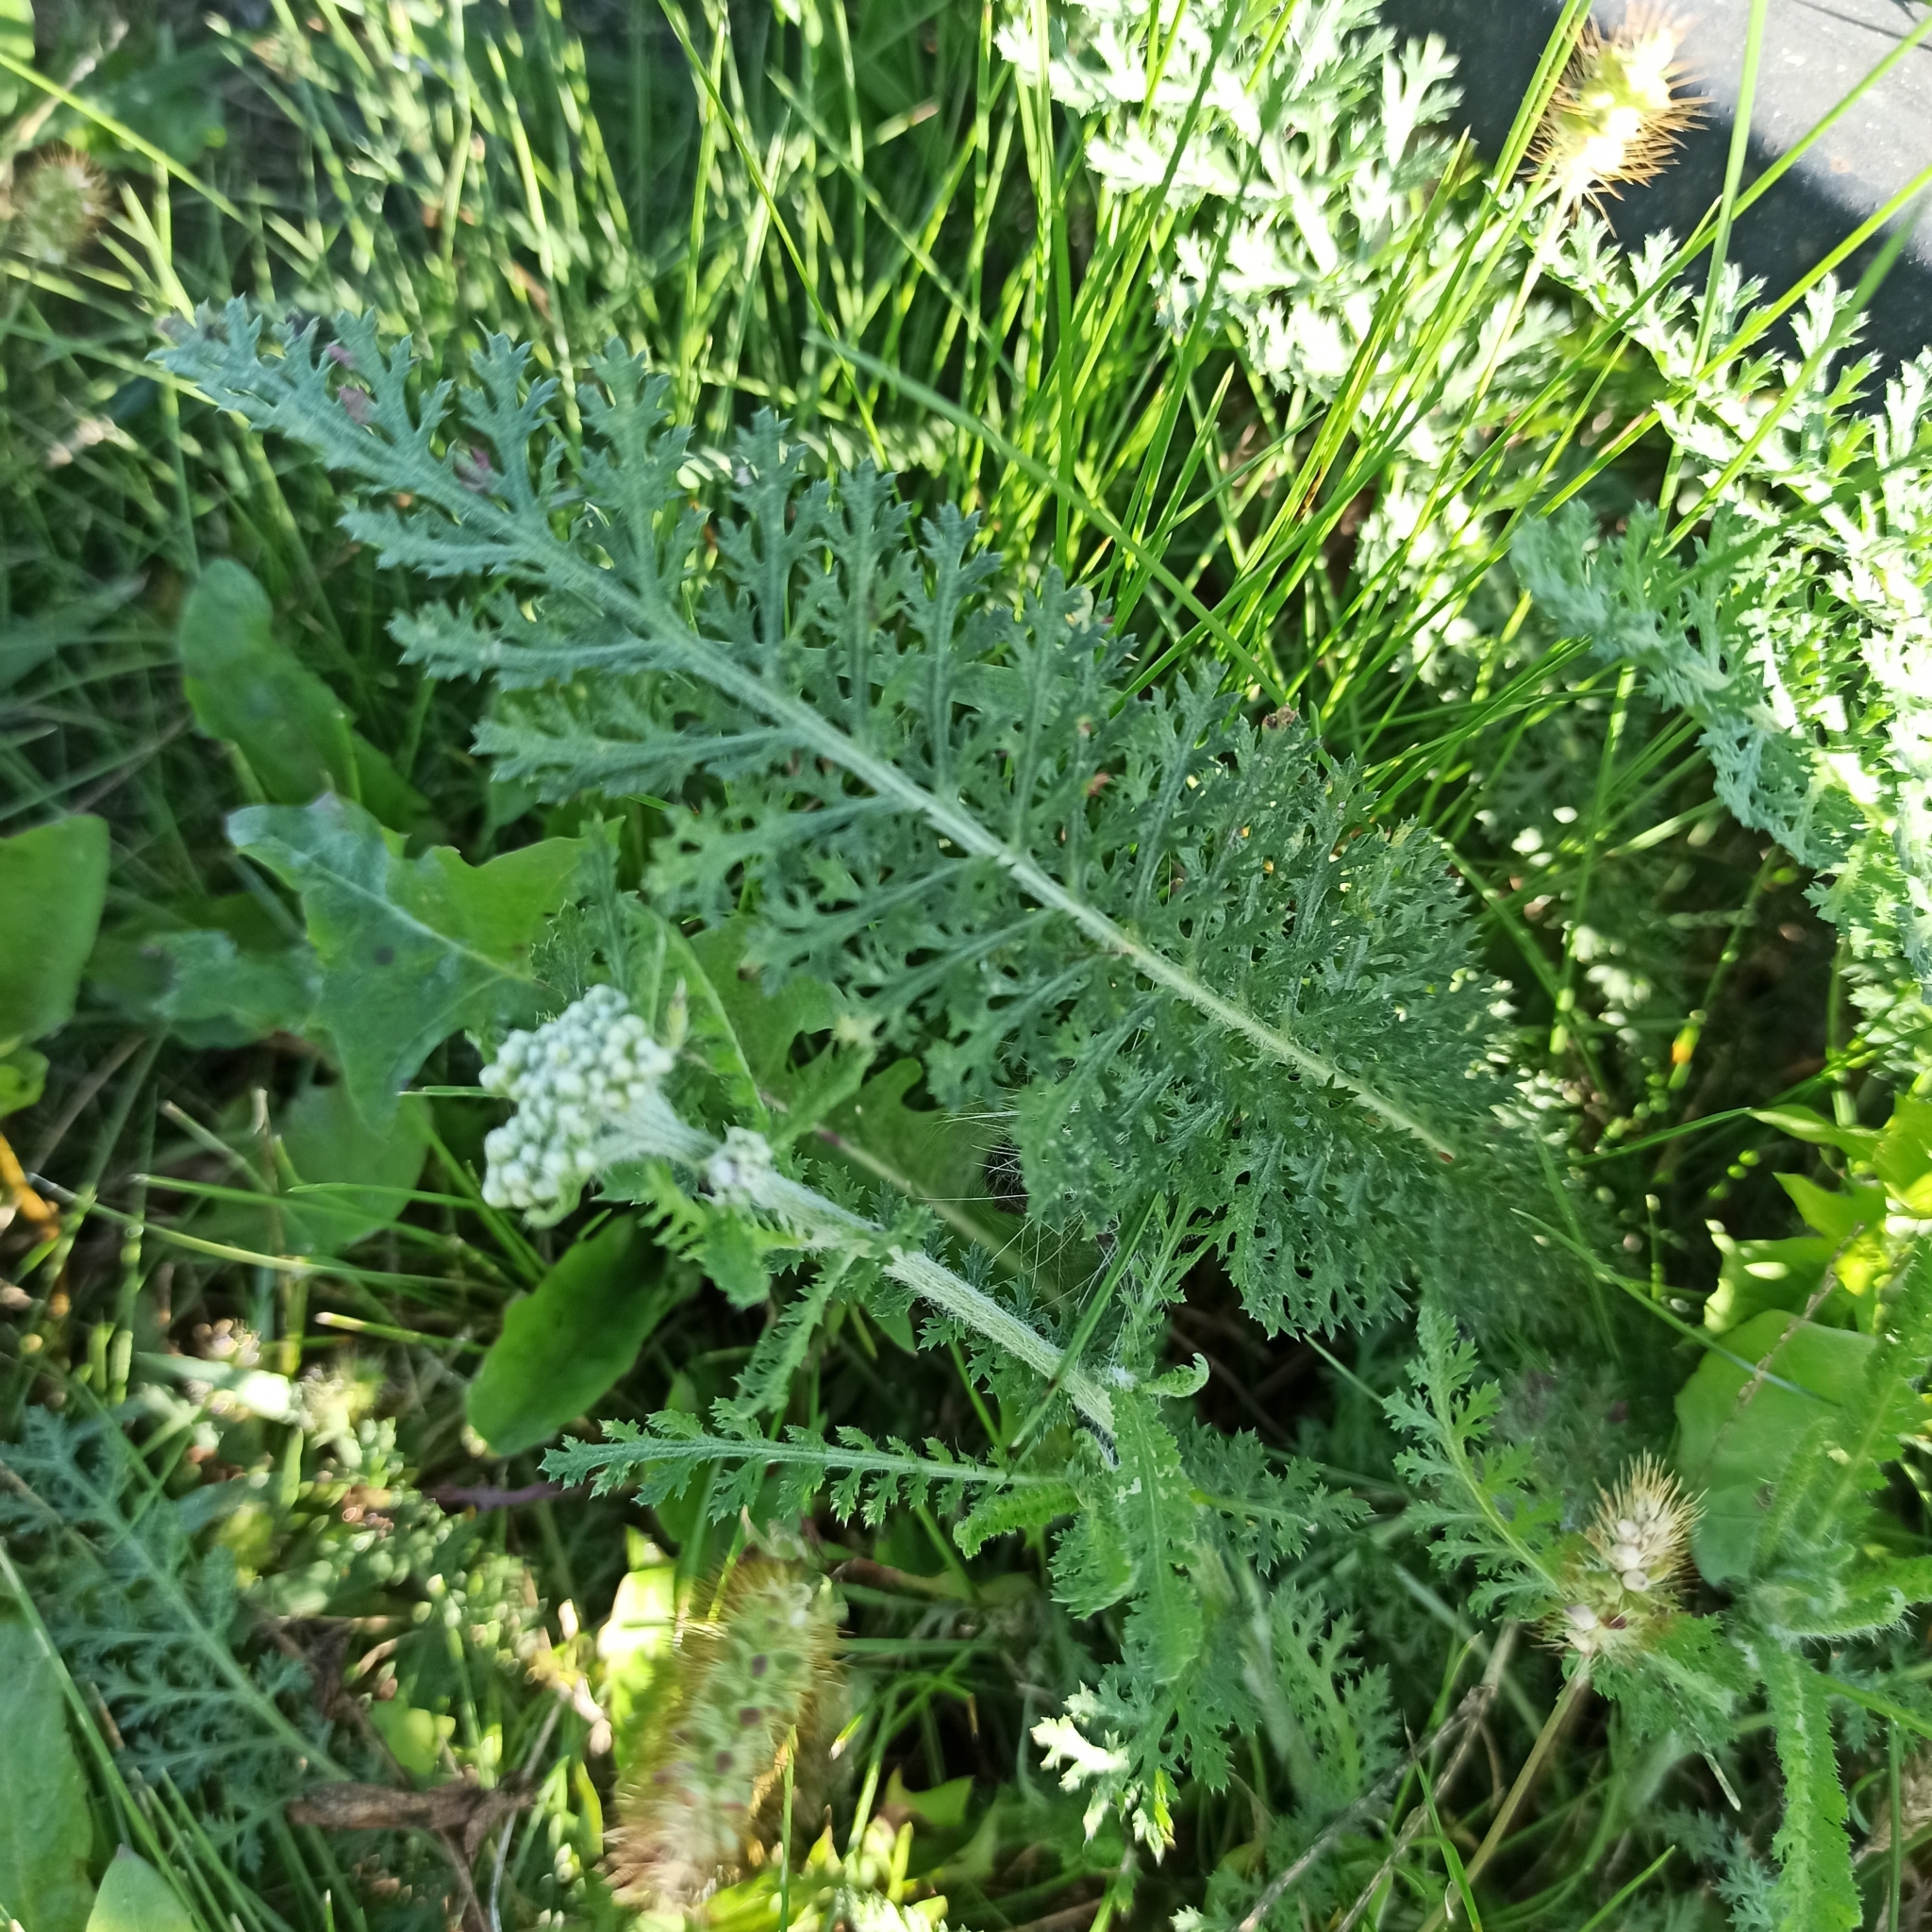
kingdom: Plantae
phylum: Tracheophyta
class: Magnoliopsida
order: Asterales
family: Asteraceae
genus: Achillea
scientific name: Achillea millefolium
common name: Yarrow
